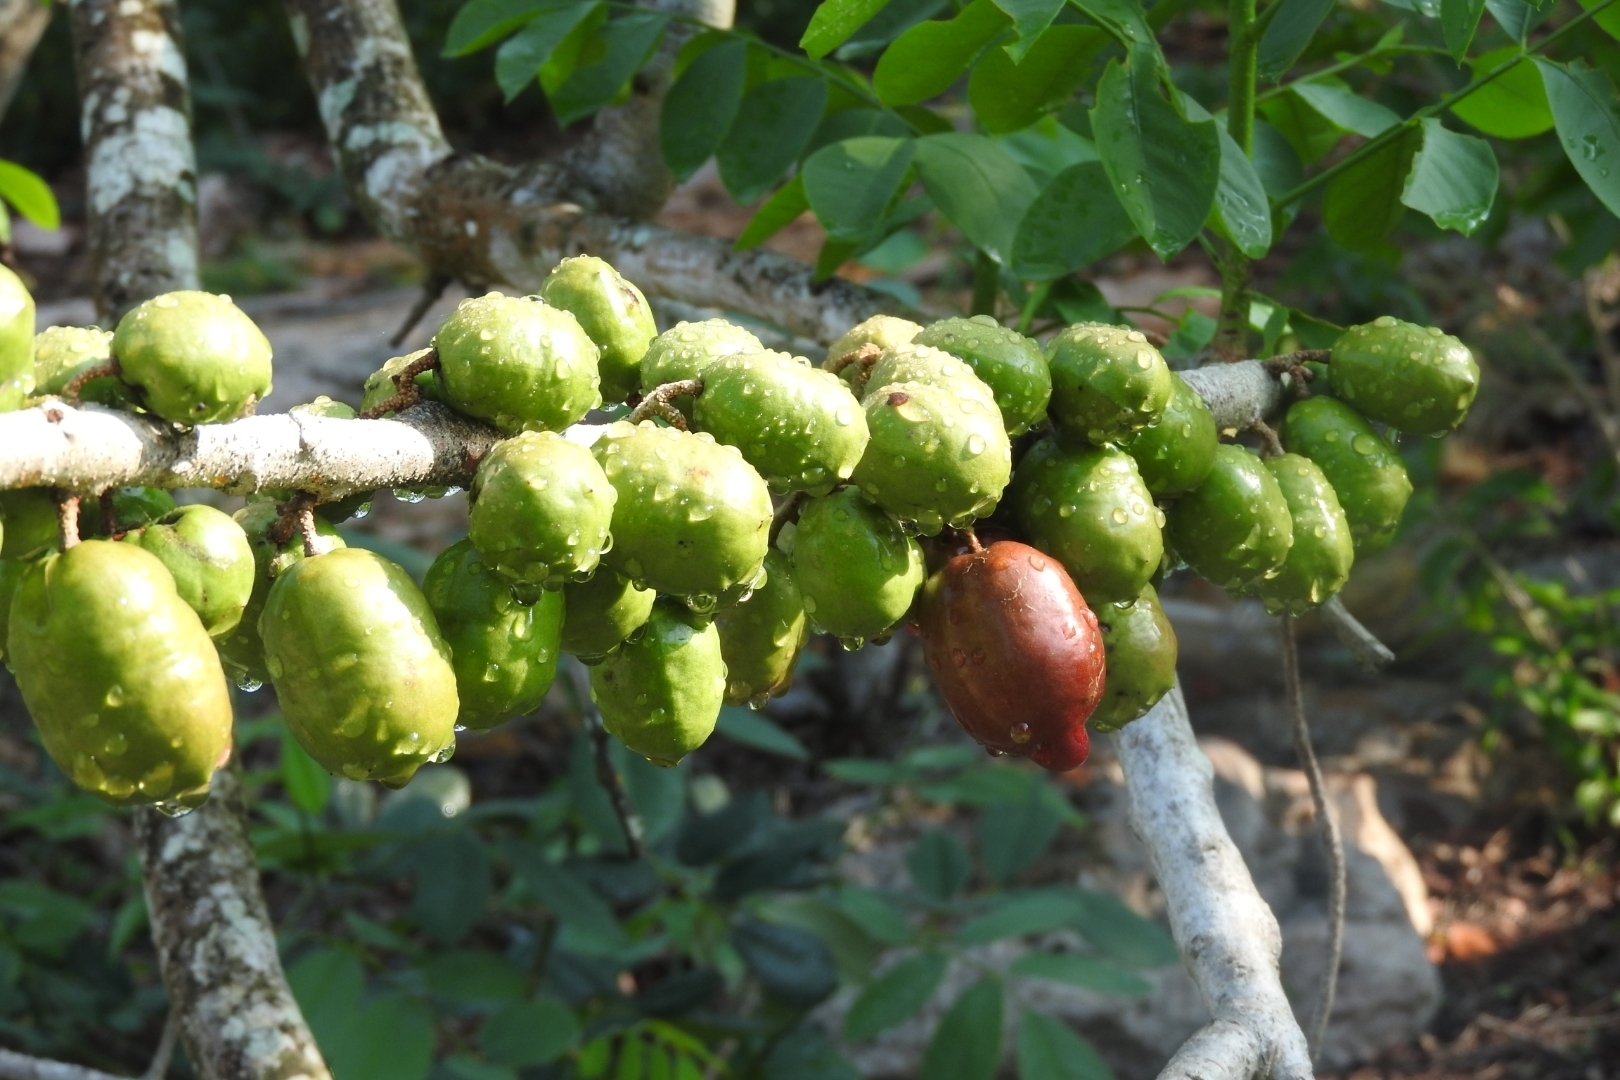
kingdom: Plantae
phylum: Tracheophyta
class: Magnoliopsida
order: Sapindales
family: Anacardiaceae
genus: Spondias
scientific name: Spondias purpurea
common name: Purple mombin
